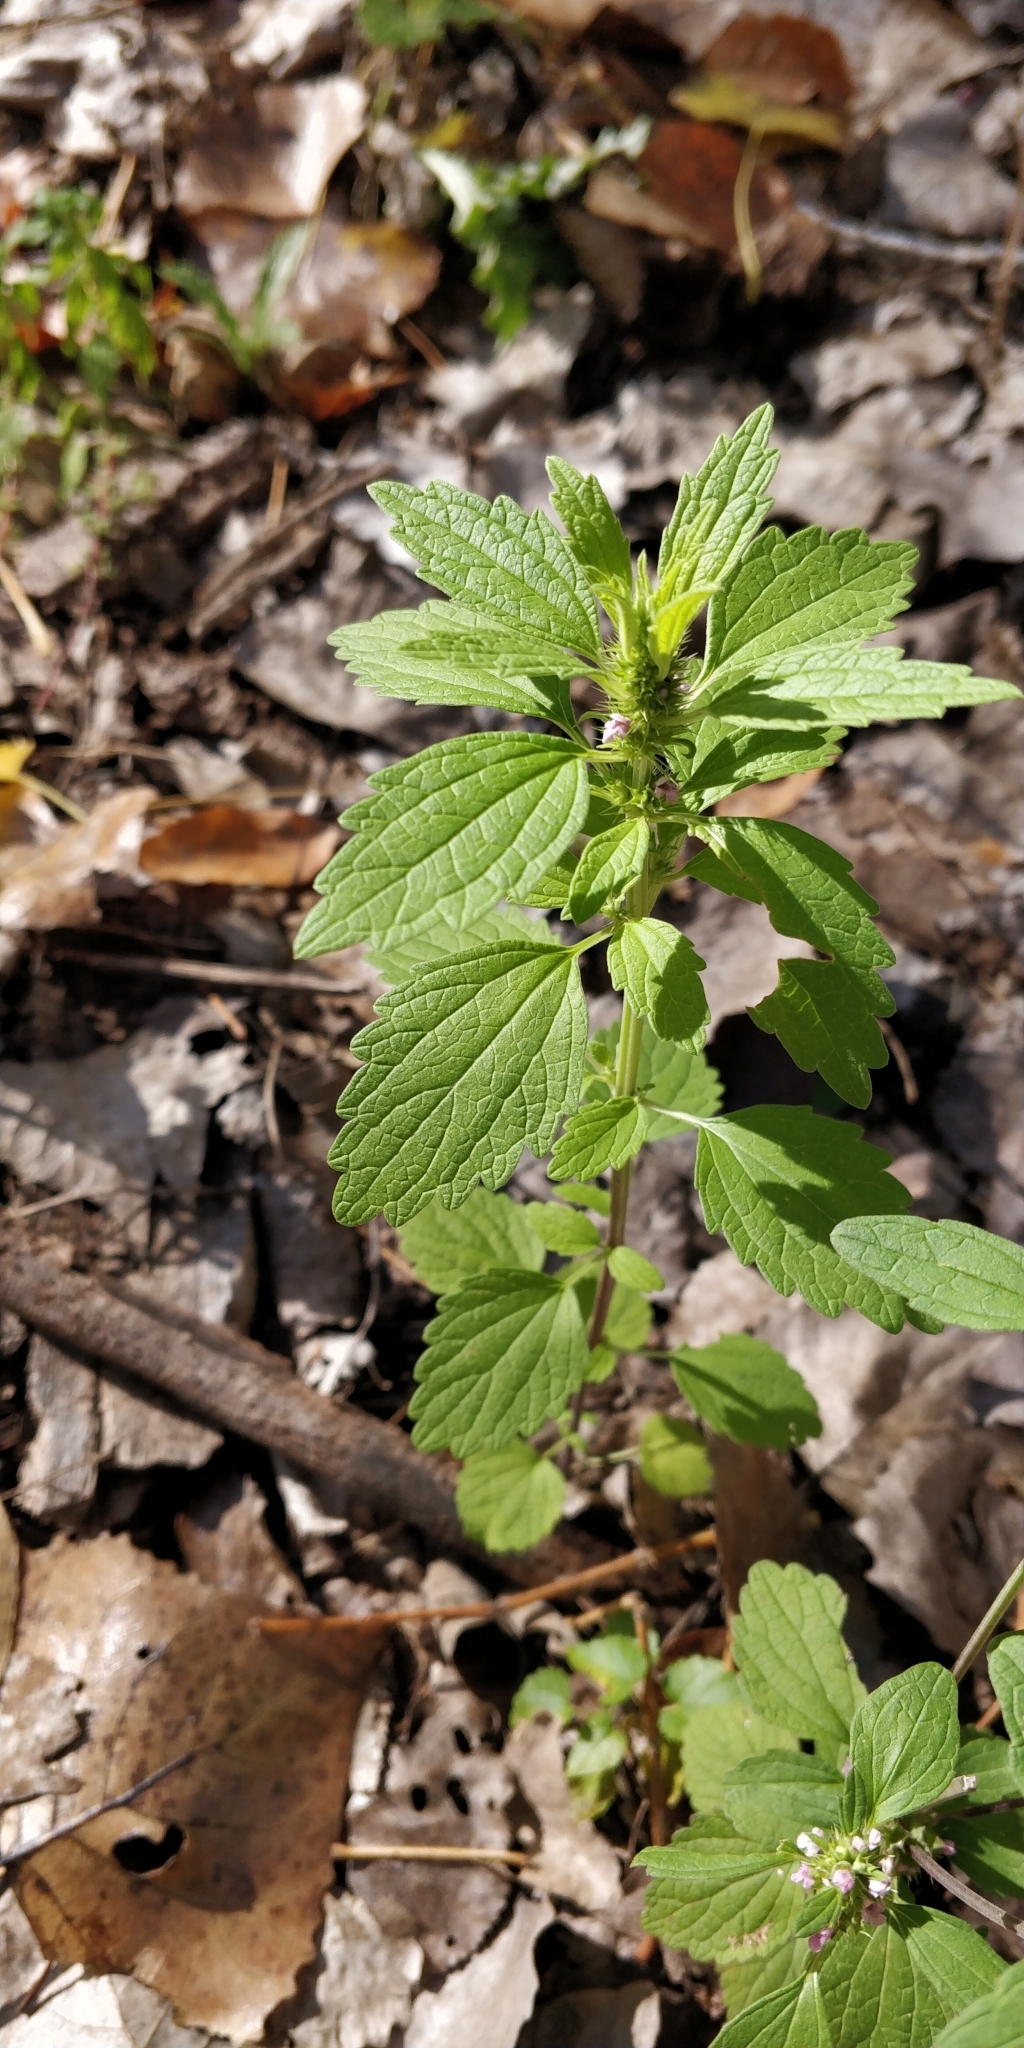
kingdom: Plantae
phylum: Tracheophyta
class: Magnoliopsida
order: Lamiales
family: Lamiaceae
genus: Chaiturus
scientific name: Chaiturus marrubiastrum
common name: Lion's tail
